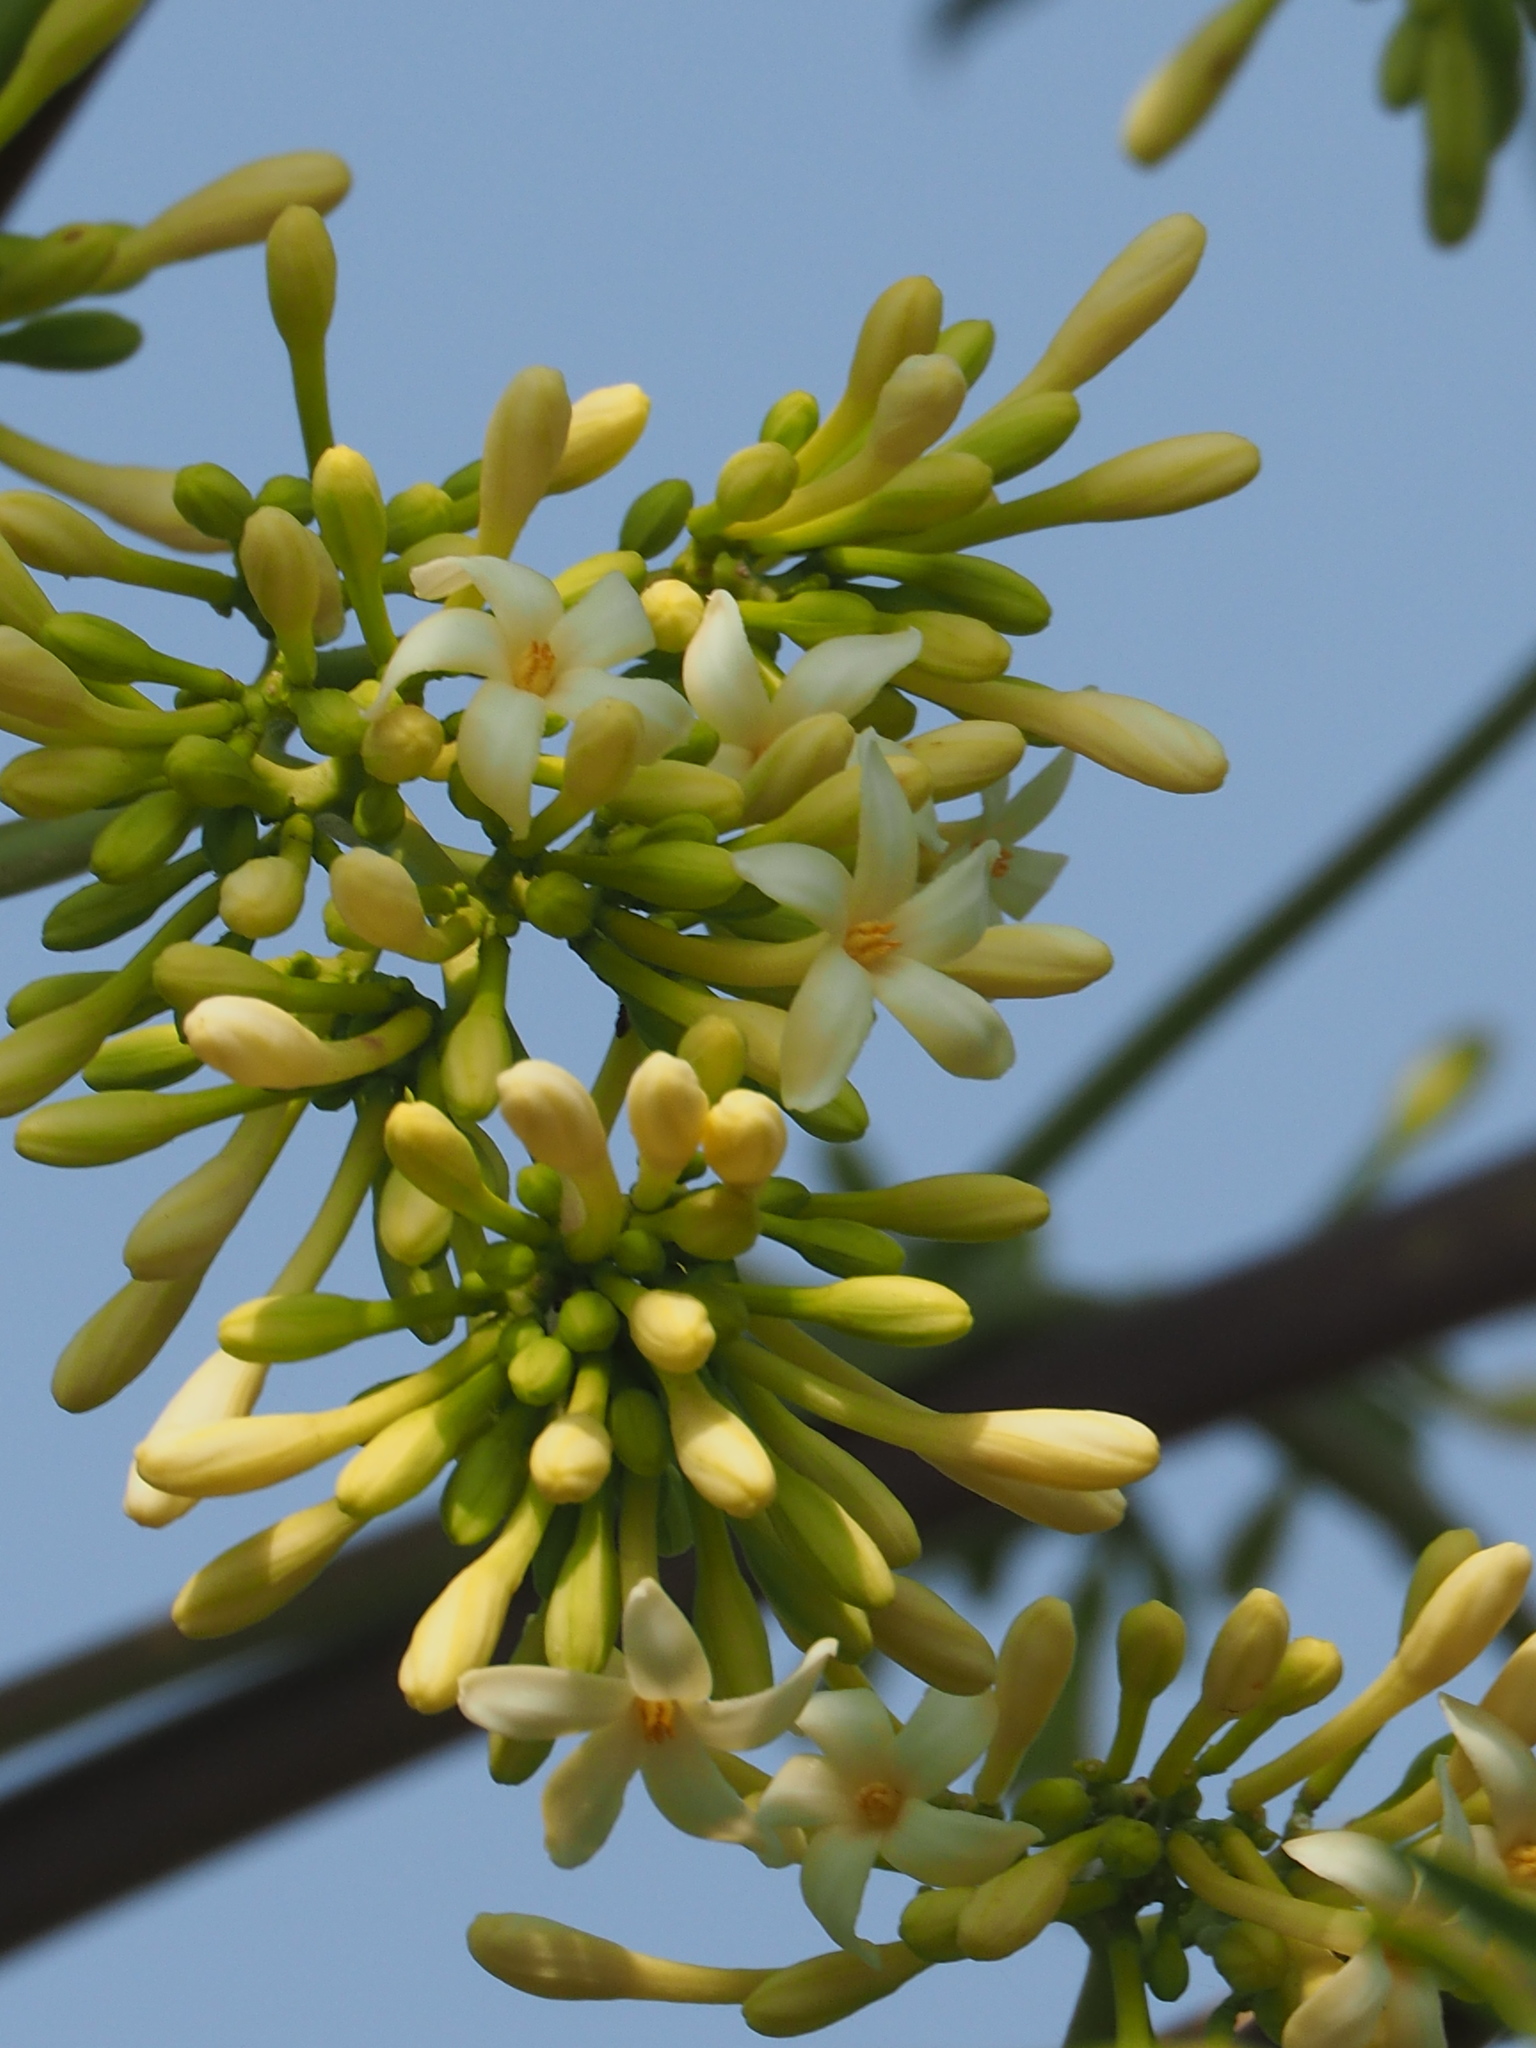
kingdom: Plantae
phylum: Tracheophyta
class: Magnoliopsida
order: Brassicales
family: Caricaceae
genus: Carica
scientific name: Carica papaya
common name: Papaya
